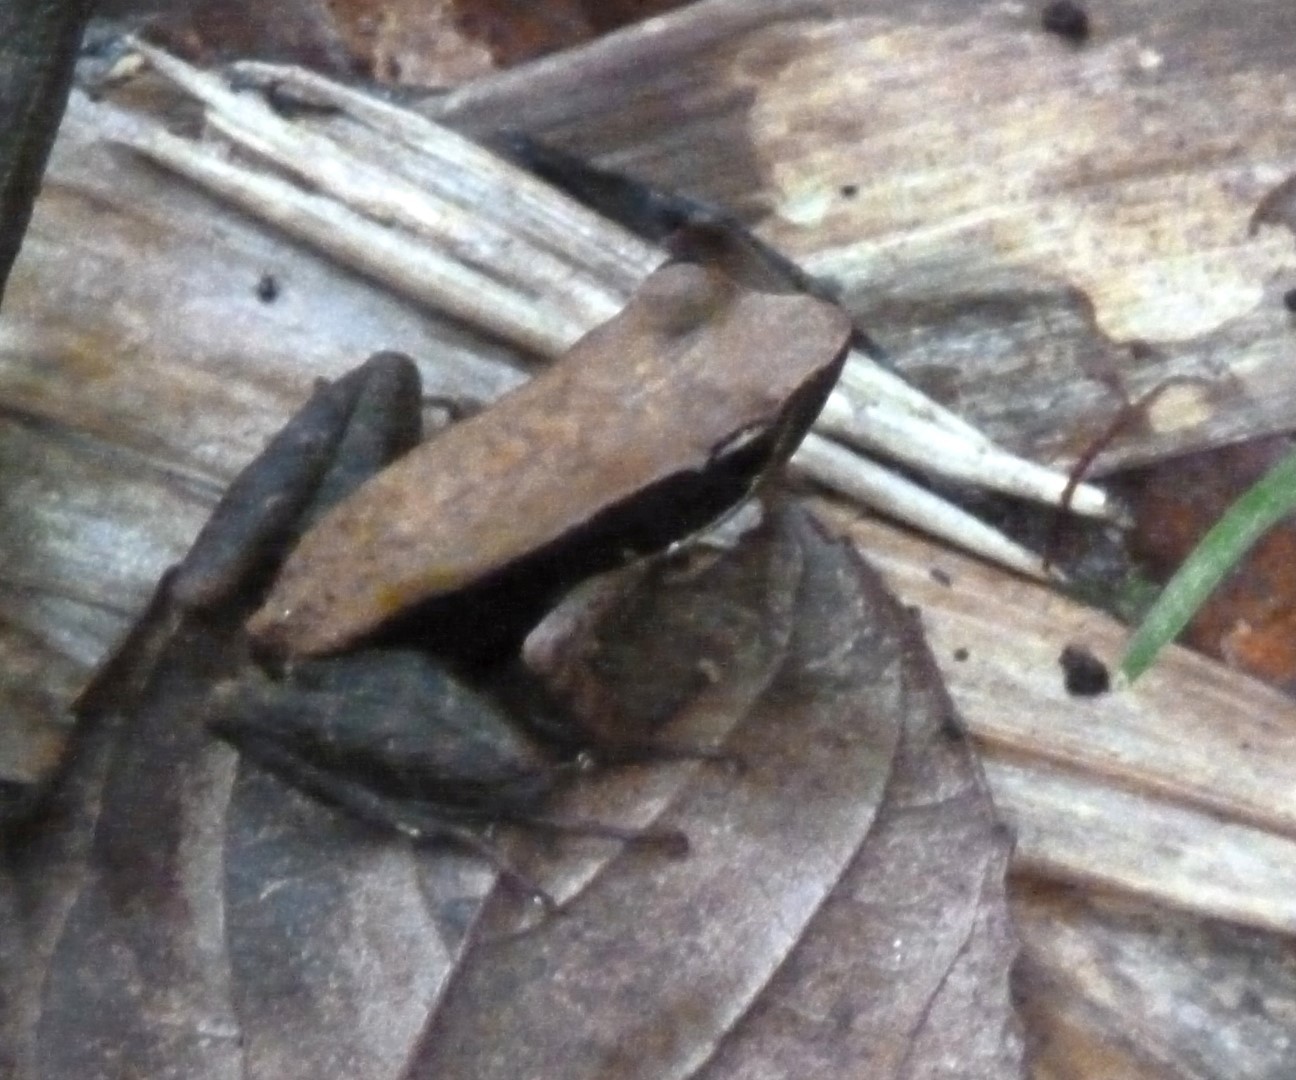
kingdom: Animalia
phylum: Chordata
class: Amphibia
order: Anura
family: Mantellidae
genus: Mantidactylus
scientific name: Mantidactylus charlotteae
